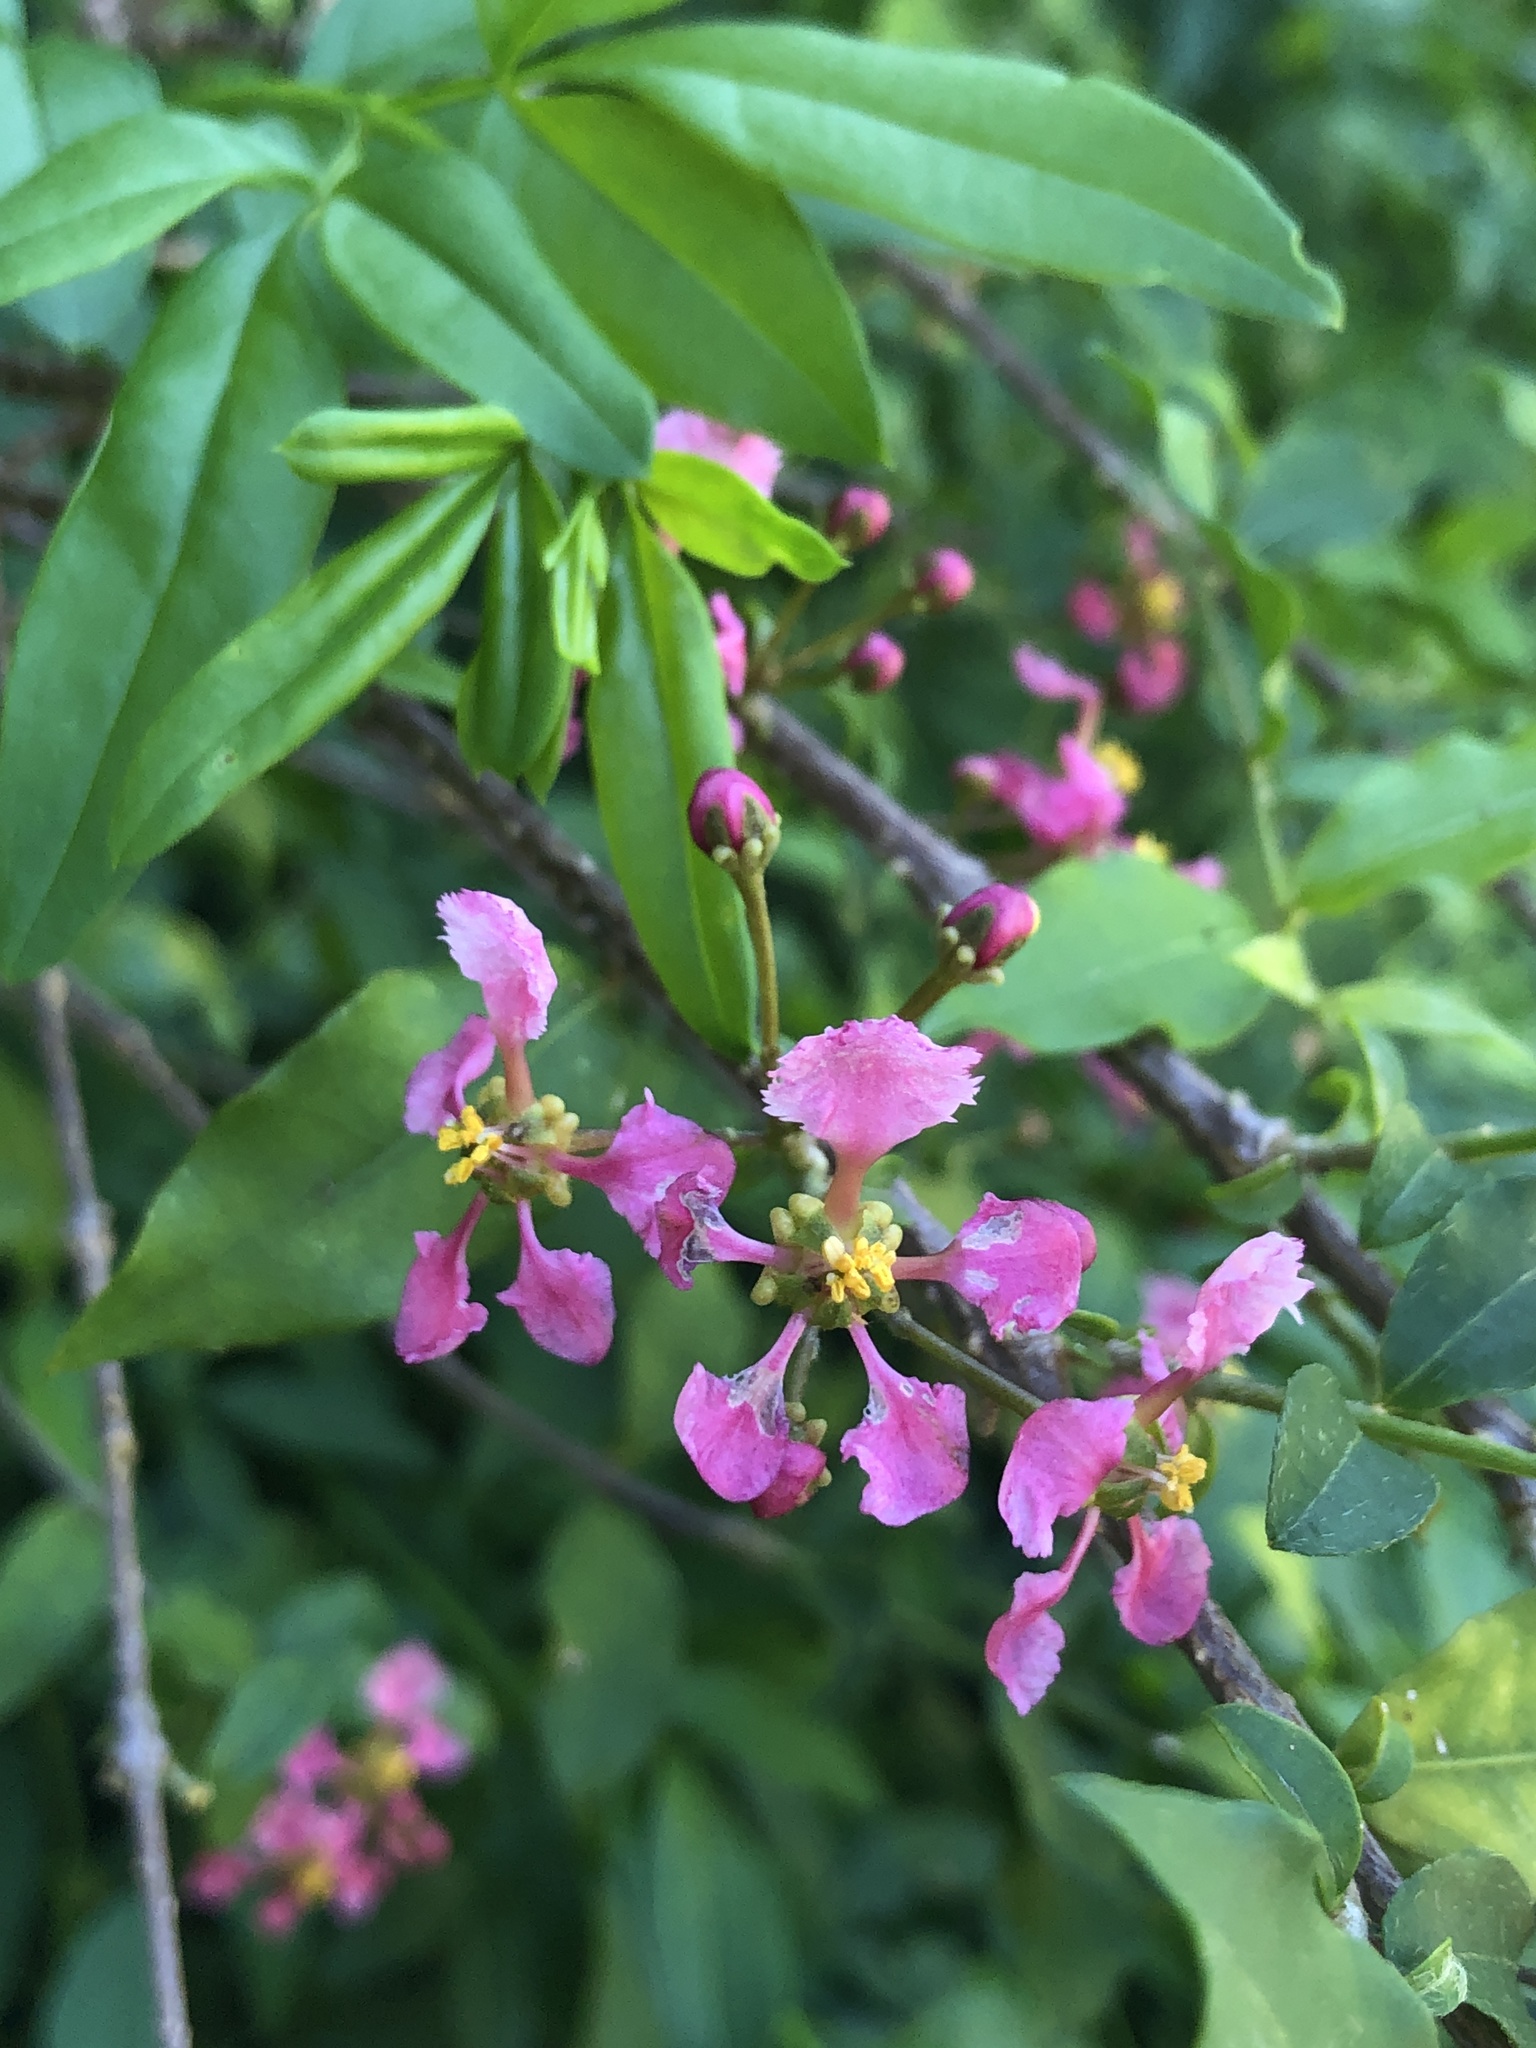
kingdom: Plantae
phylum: Tracheophyta
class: Magnoliopsida
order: Malpighiales
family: Malpighiaceae
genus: Malpighia
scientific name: Malpighia glabra
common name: Barbados cherry
